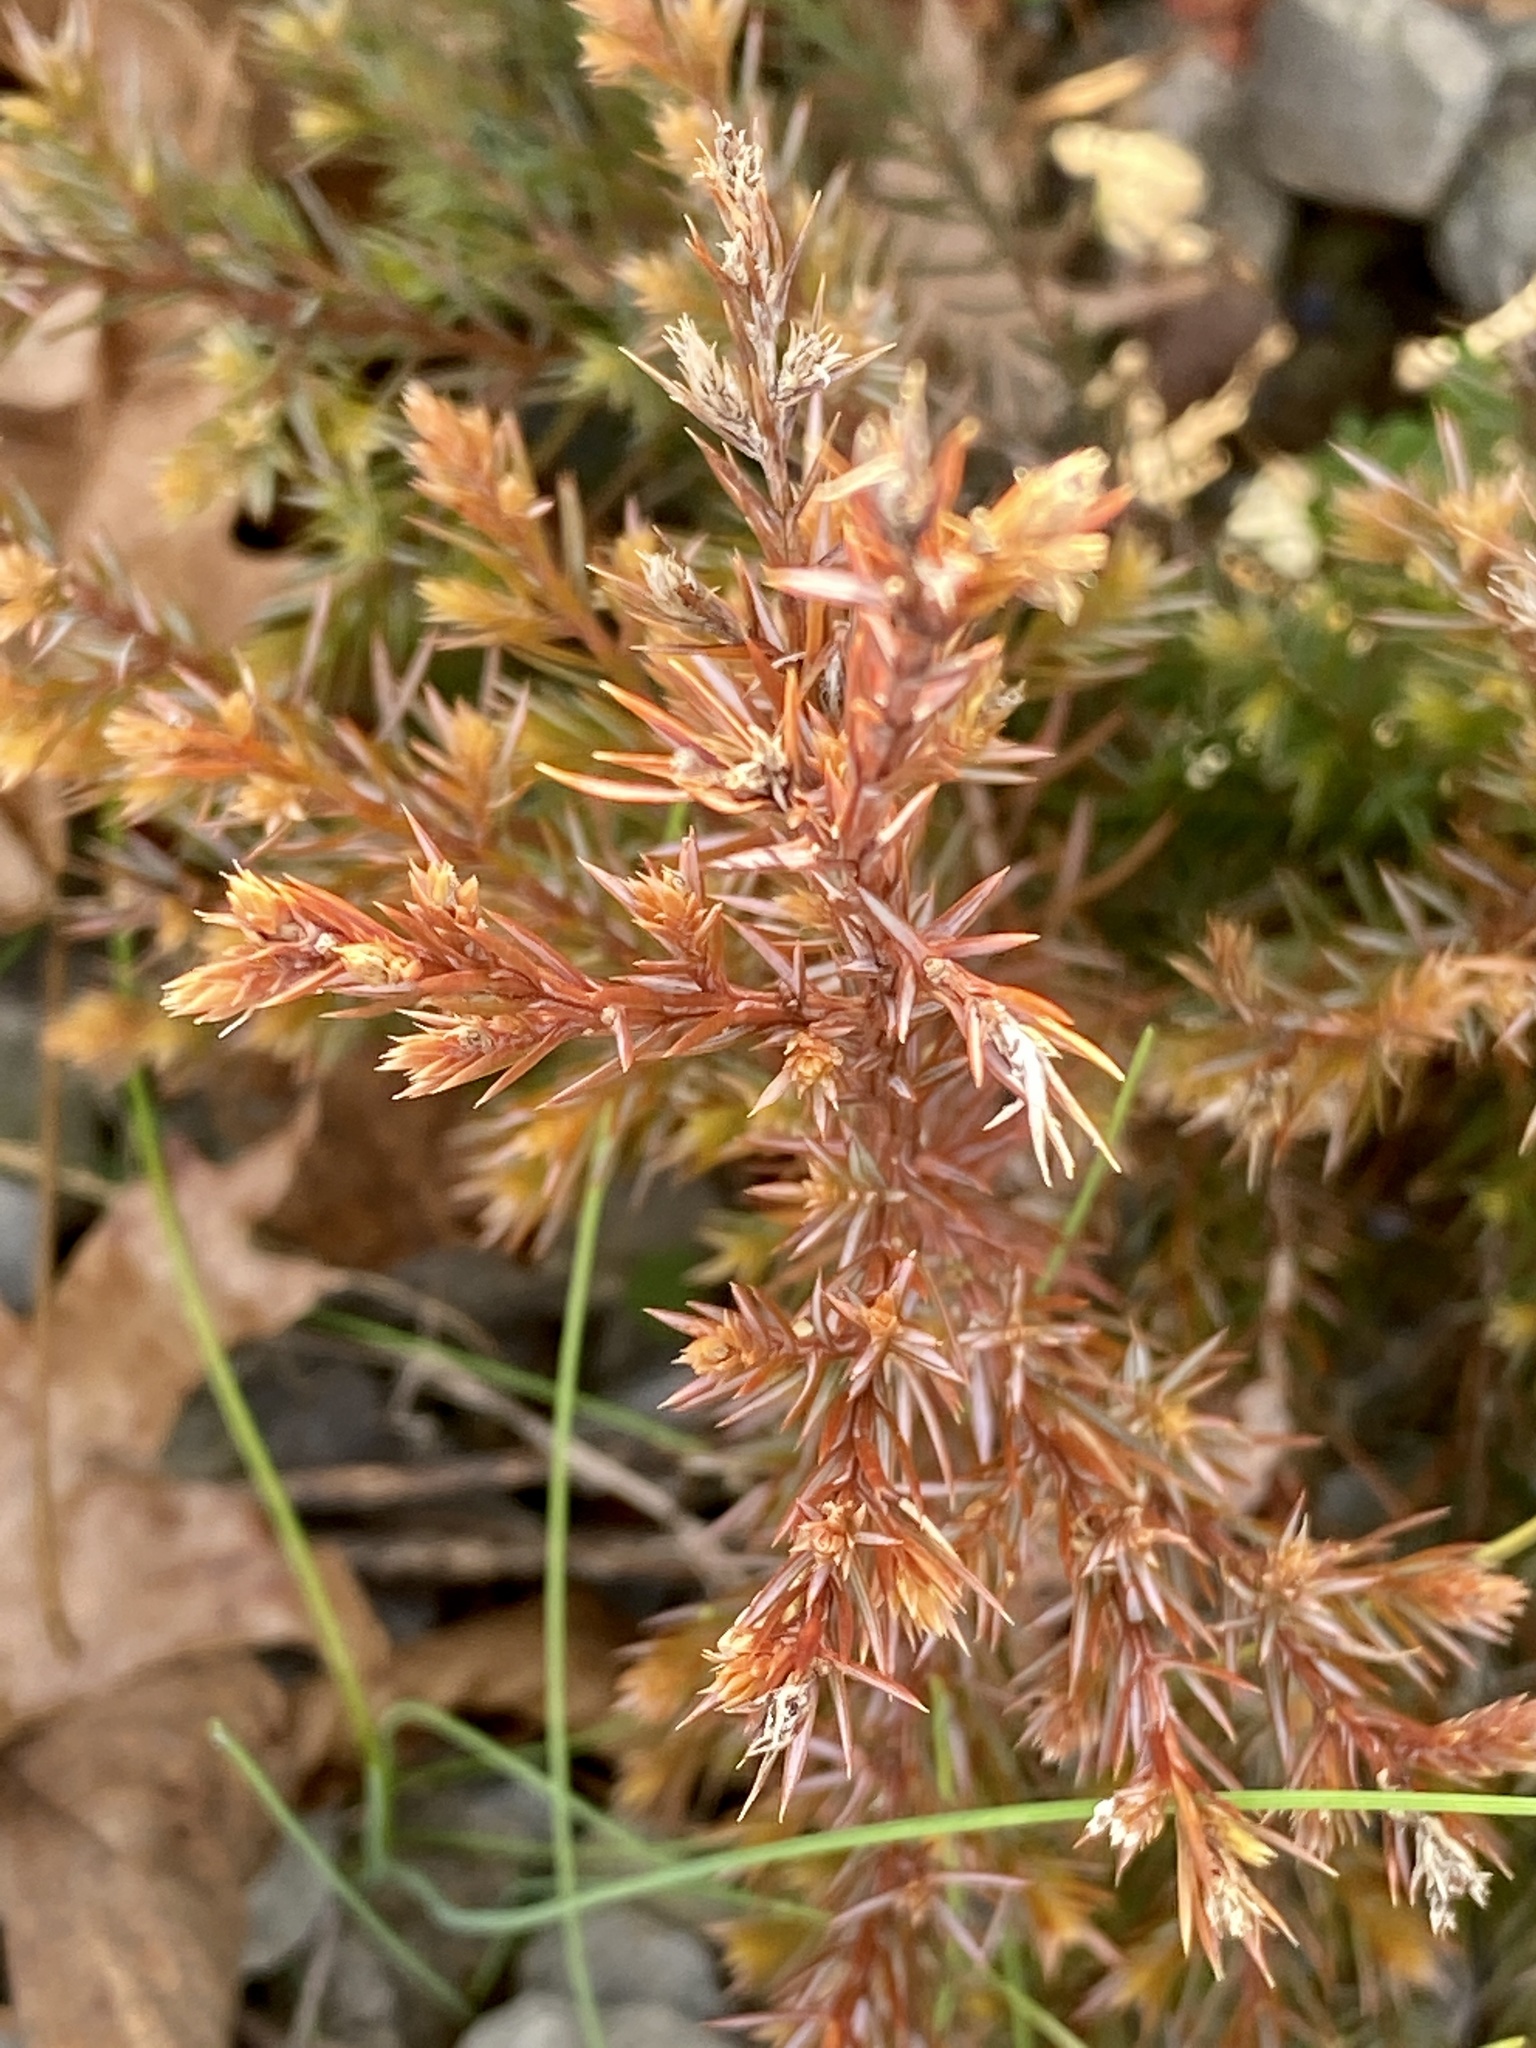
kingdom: Plantae
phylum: Tracheophyta
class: Pinopsida
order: Pinales
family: Cupressaceae
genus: Juniperus
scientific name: Juniperus virginiana
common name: Red juniper
